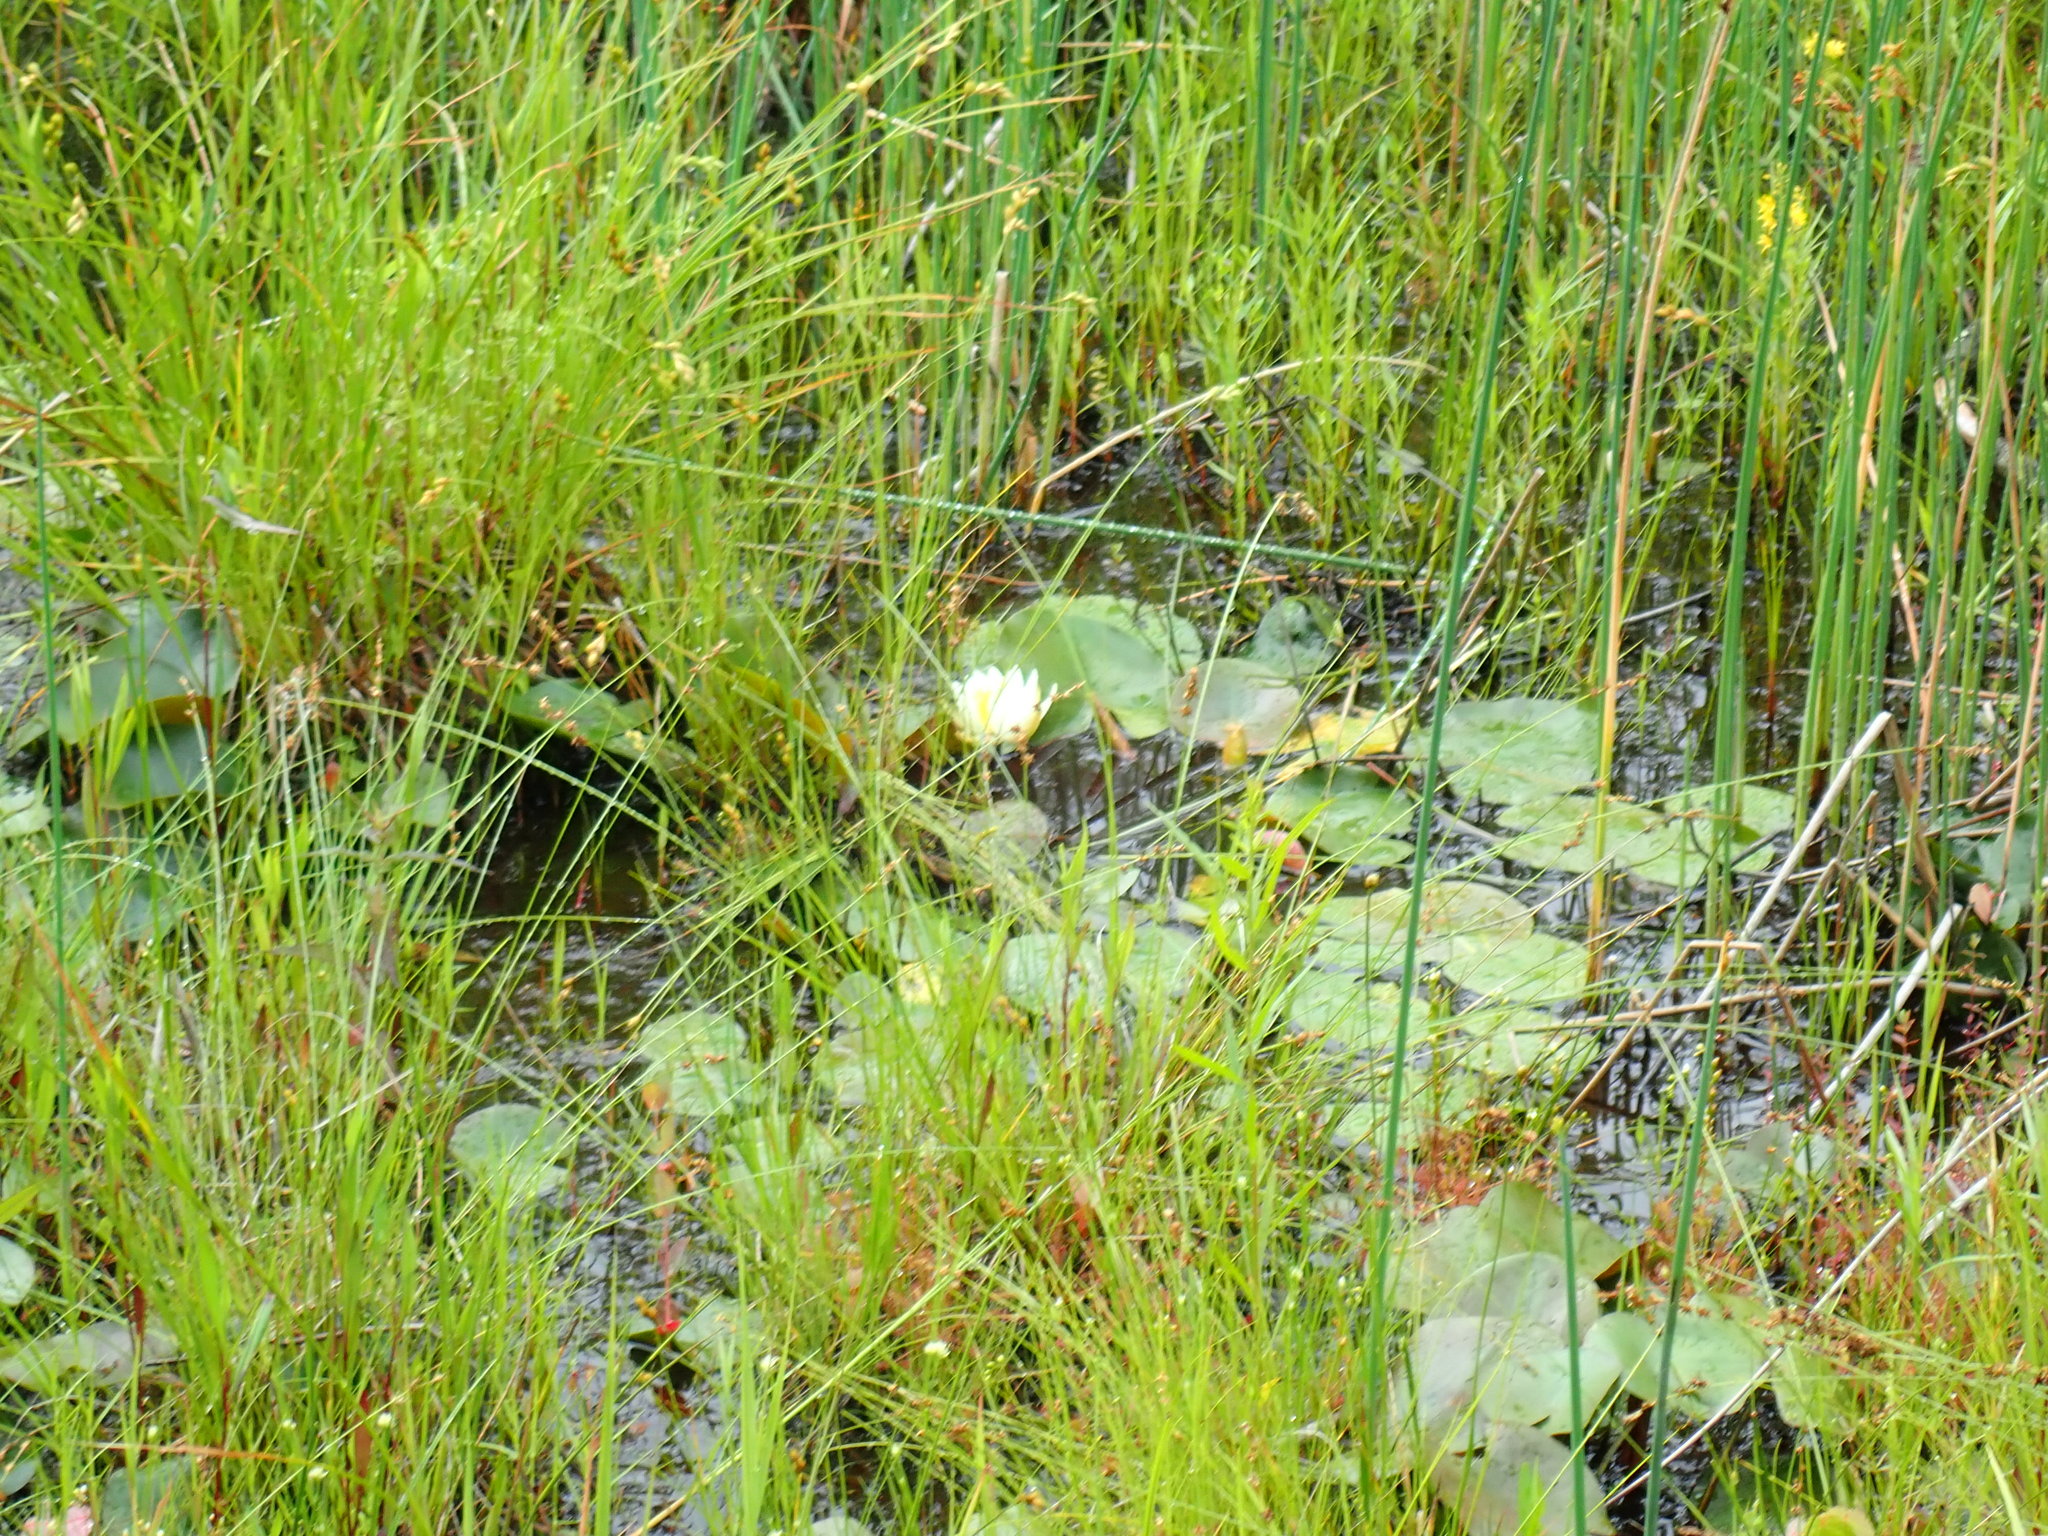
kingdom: Plantae
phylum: Tracheophyta
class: Magnoliopsida
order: Nymphaeales
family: Nymphaeaceae
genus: Nymphaea
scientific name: Nymphaea odorata
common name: Fragrant water-lily
